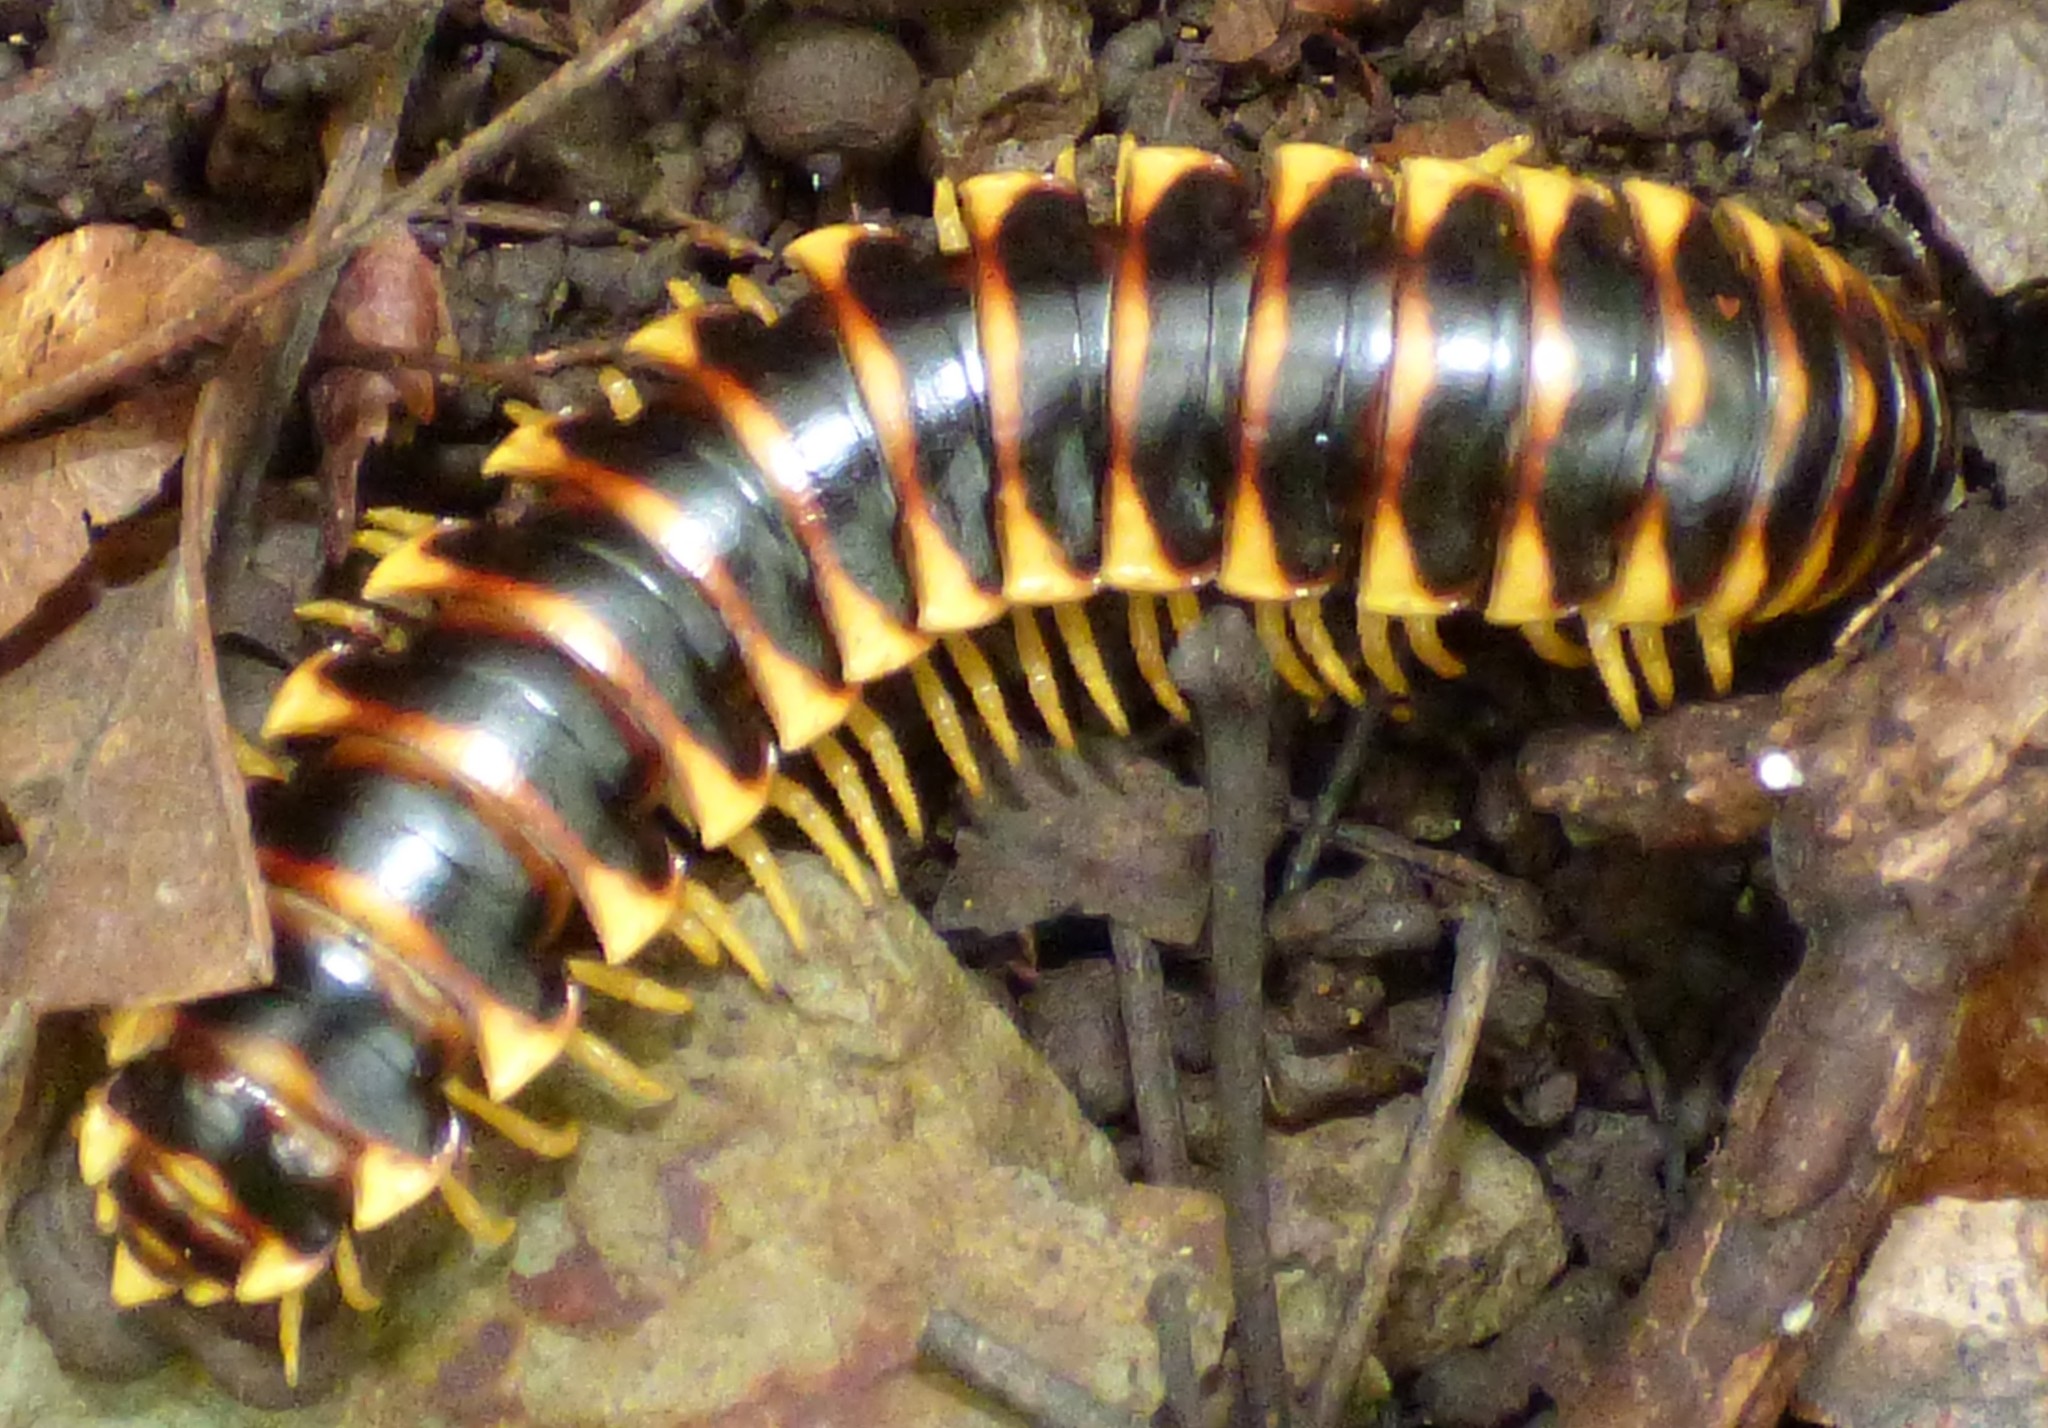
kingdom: Animalia
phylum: Arthropoda
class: Diplopoda
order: Polydesmida
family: Xystodesmidae
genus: Apheloria
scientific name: Apheloria virginiensis
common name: Black-and-gold flat millipede
